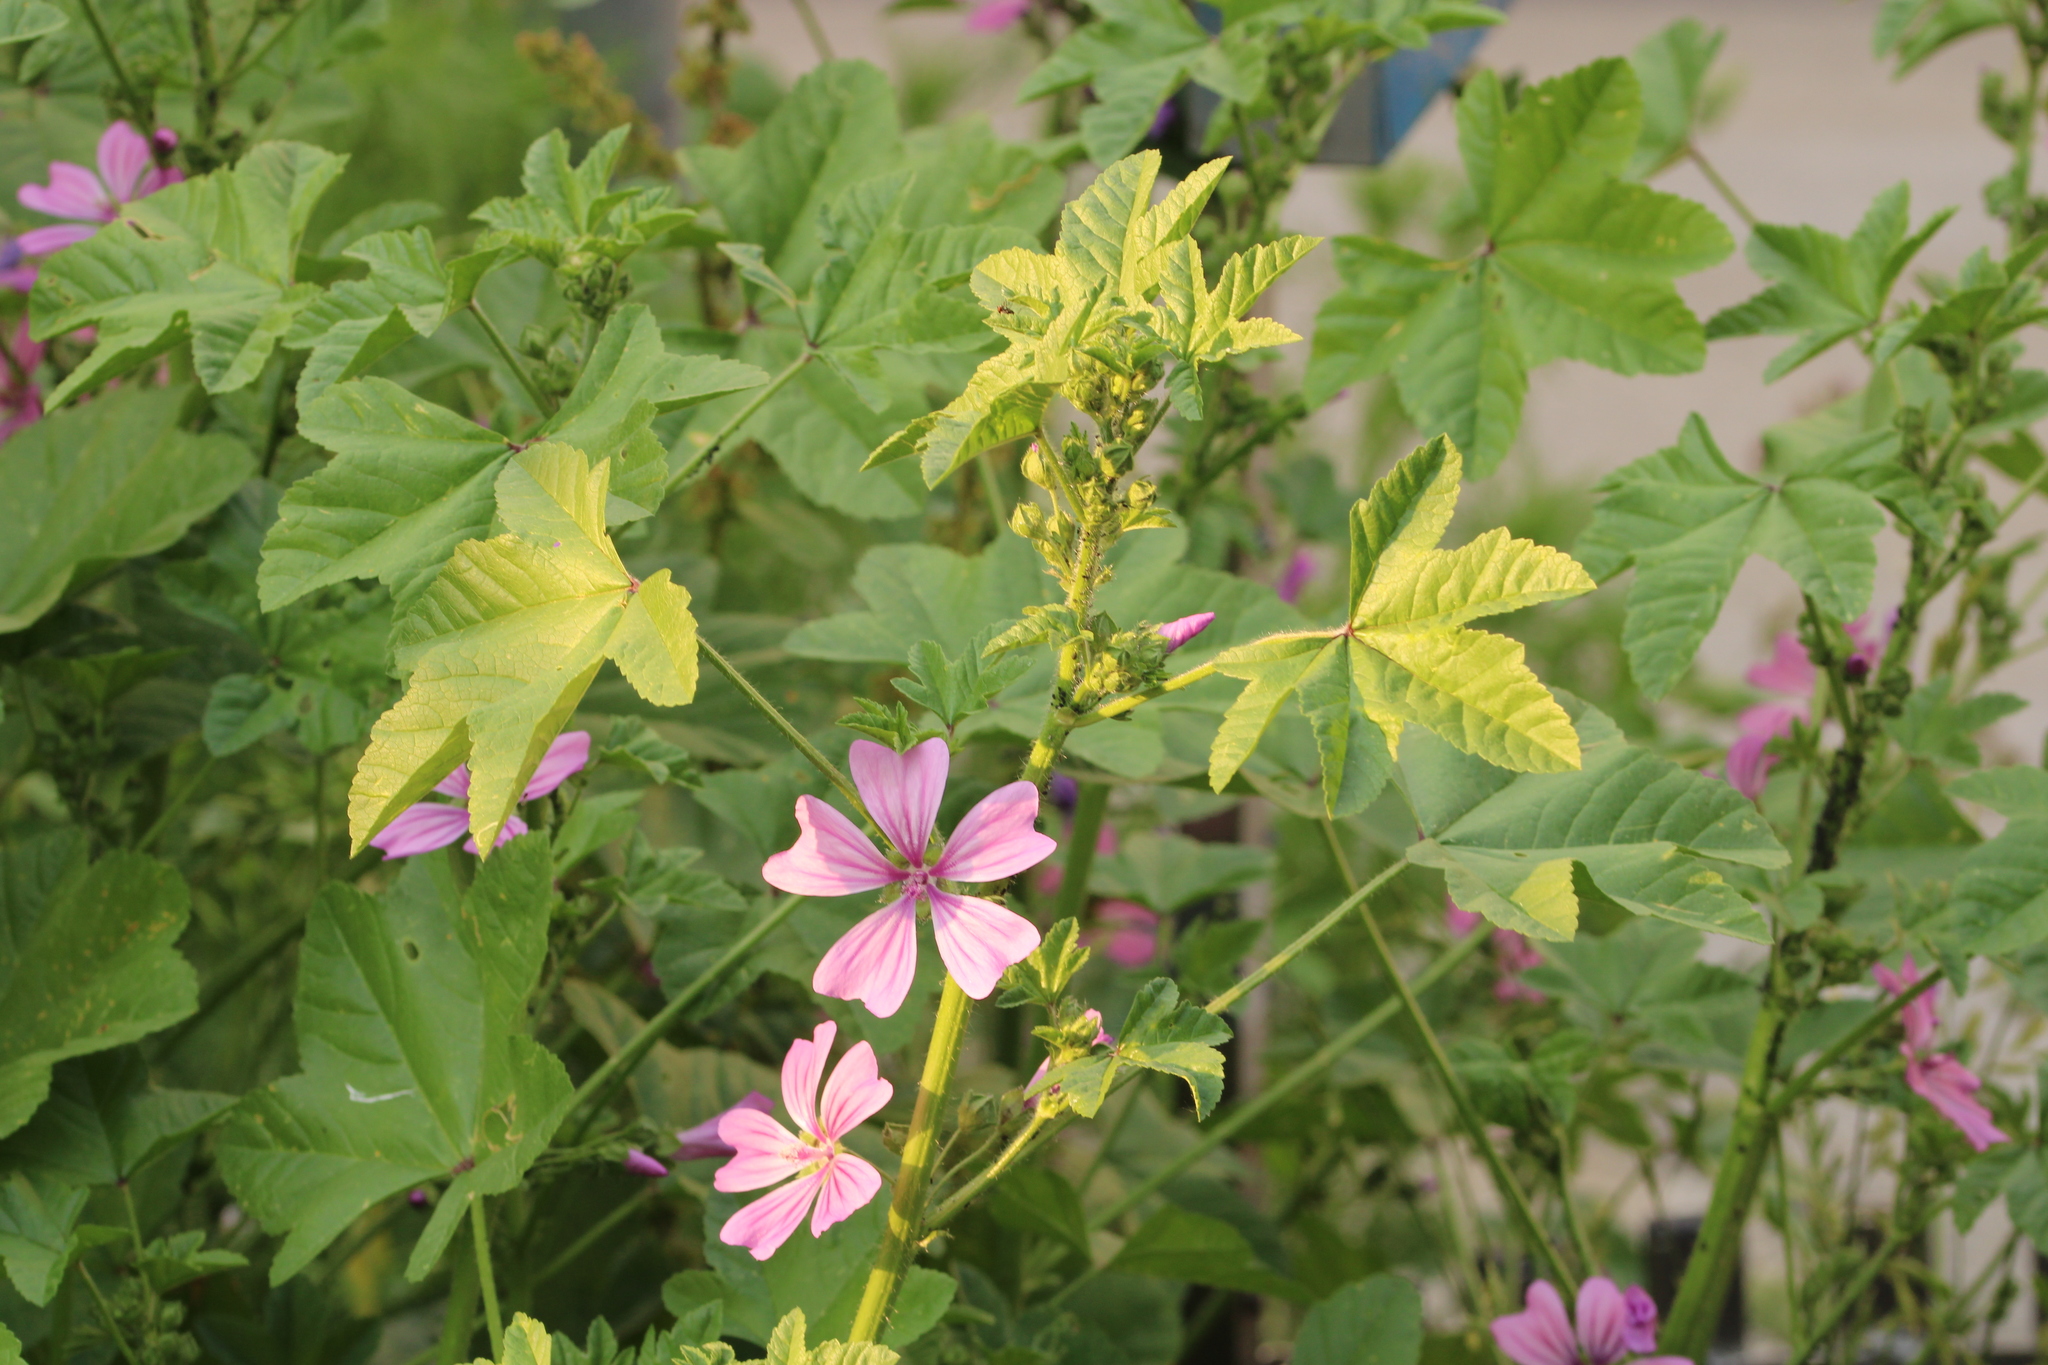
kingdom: Plantae
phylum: Tracheophyta
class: Magnoliopsida
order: Malvales
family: Malvaceae
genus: Malva
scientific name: Malva sylvestris
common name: Common mallow
